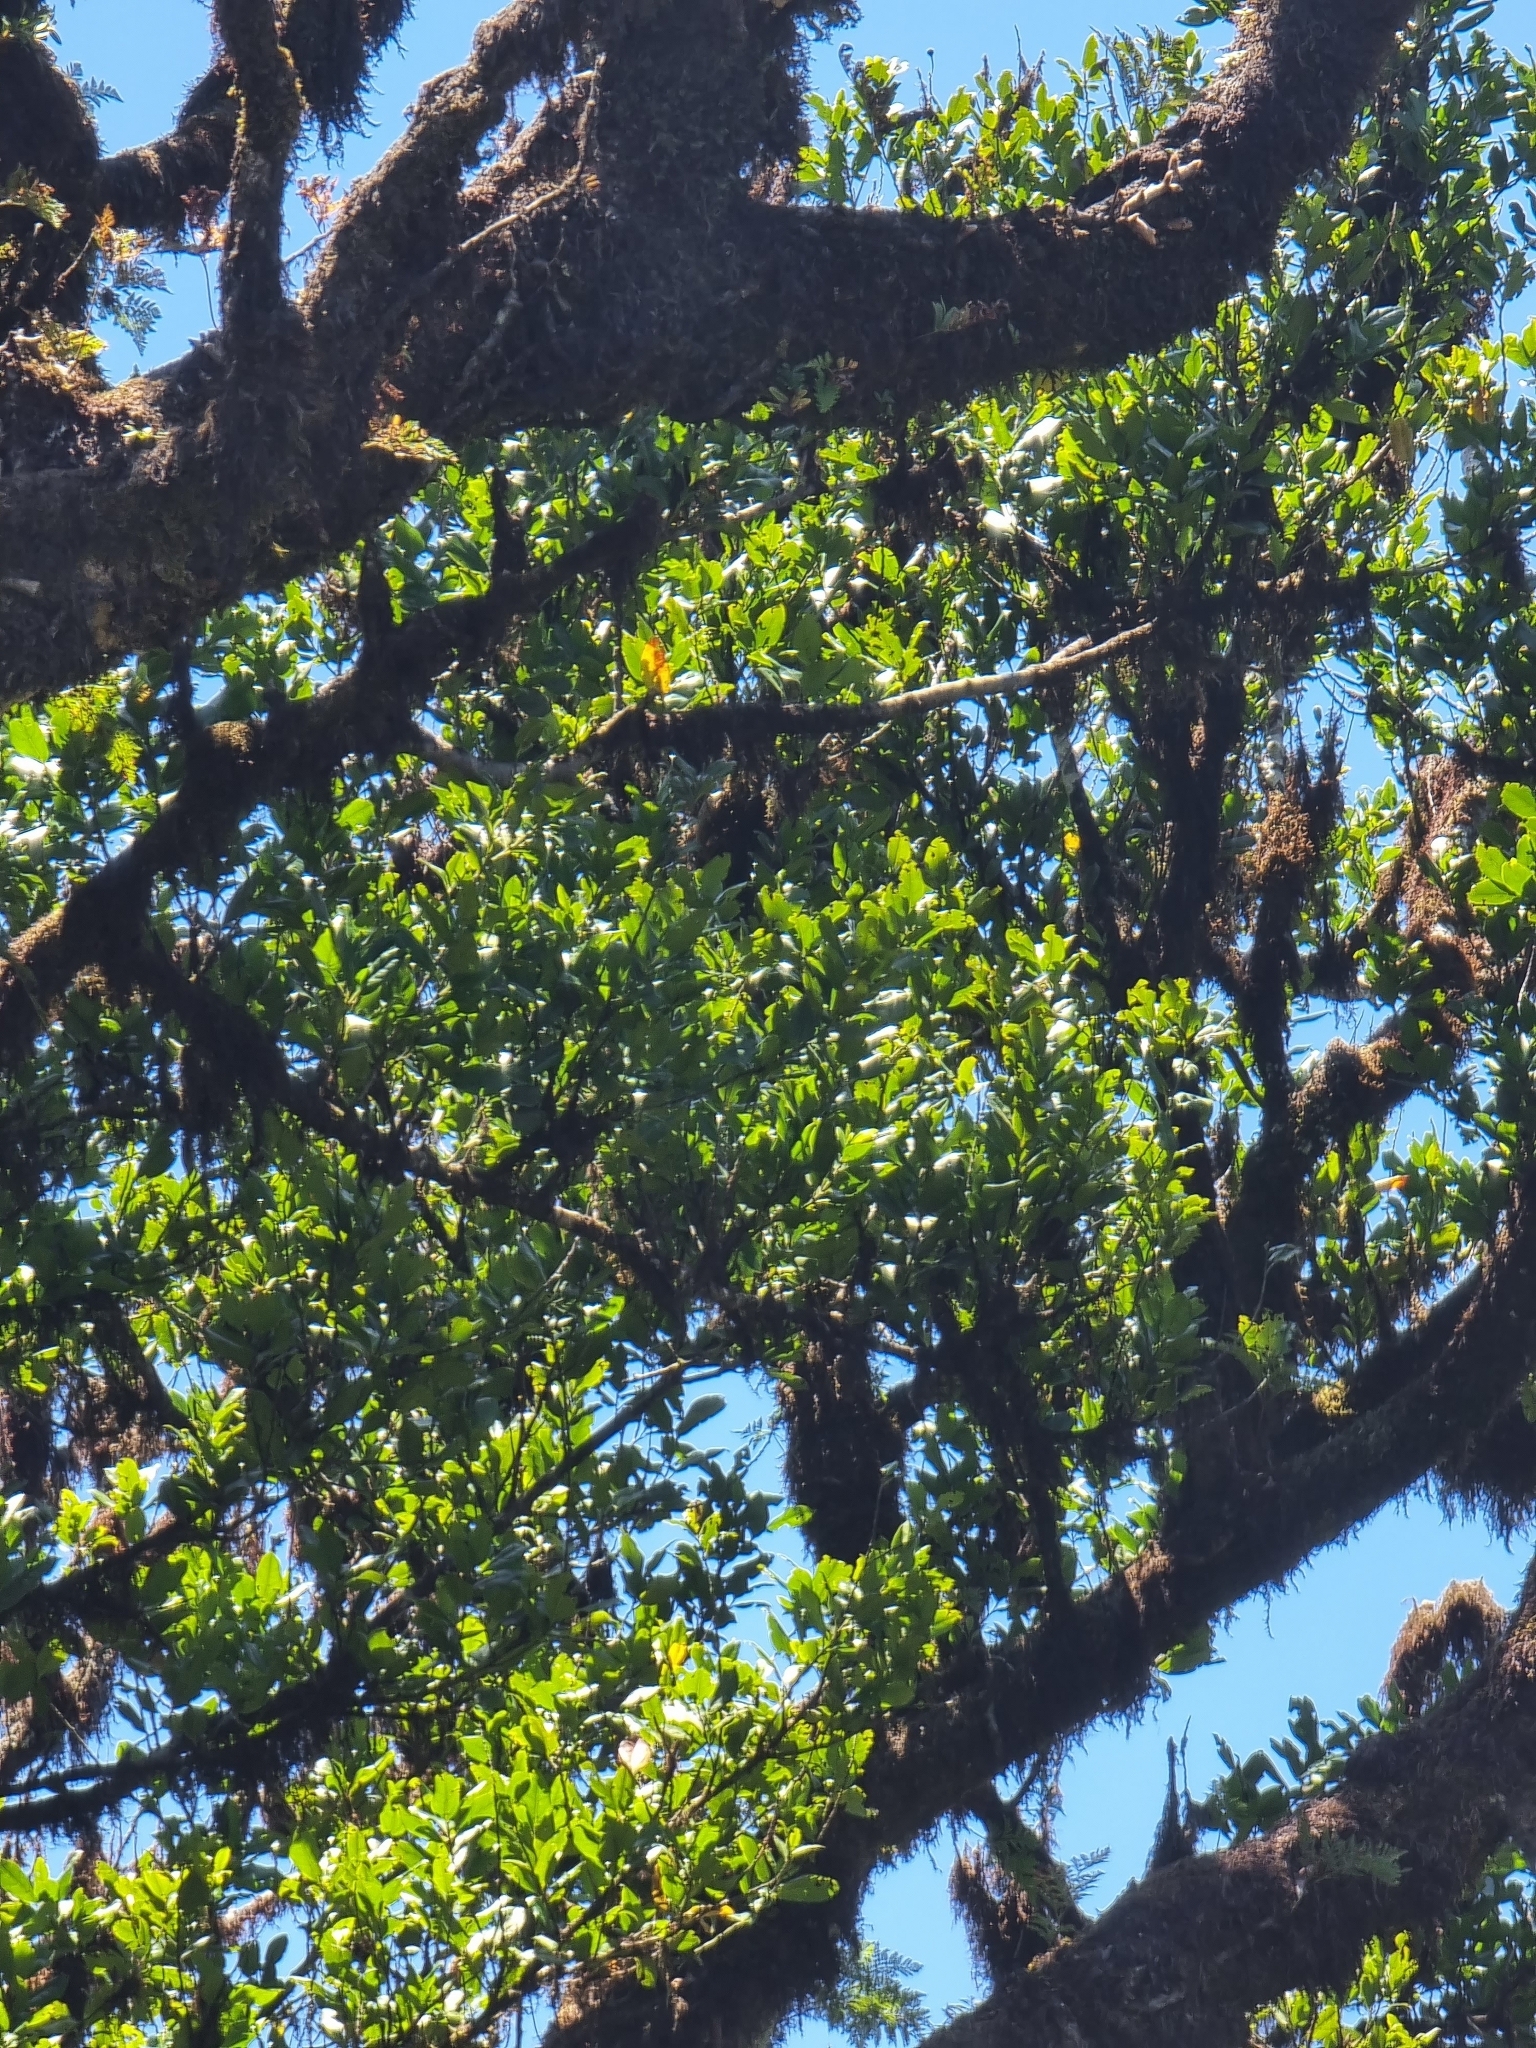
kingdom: Plantae
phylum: Tracheophyta
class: Magnoliopsida
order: Laurales
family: Lauraceae
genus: Mespilodaphne
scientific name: Mespilodaphne foetens
